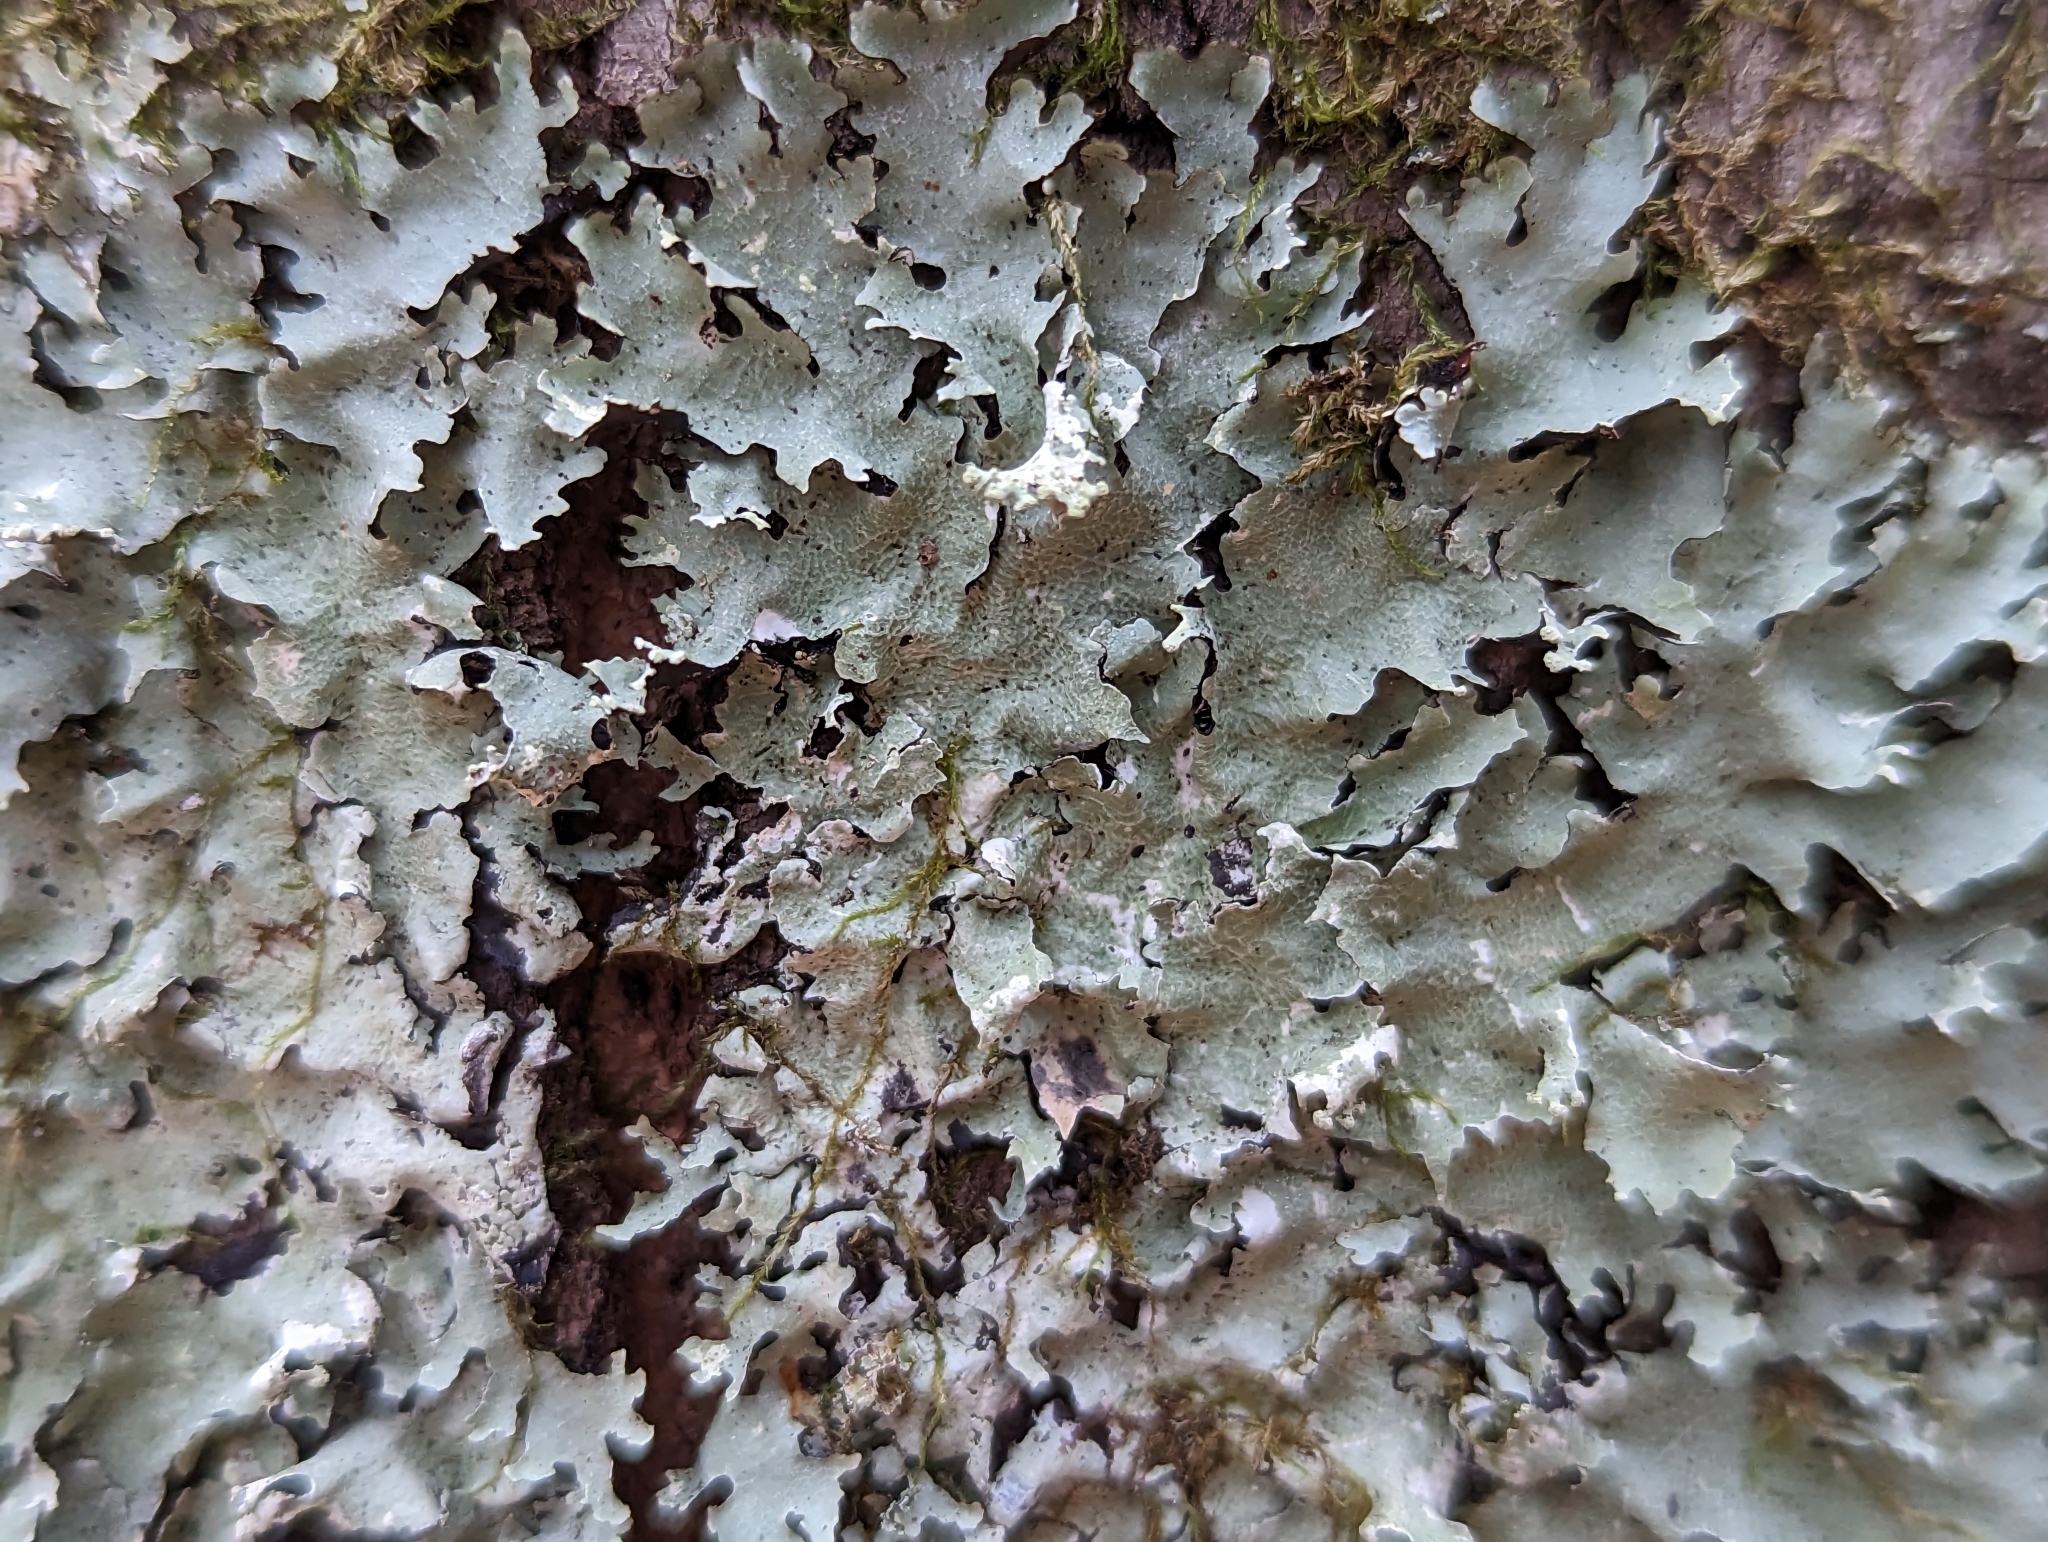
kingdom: Fungi
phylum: Ascomycota
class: Lecanoromycetes
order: Lecanorales
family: Parmeliaceae
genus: Parmotrema
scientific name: Parmotrema reticulatum
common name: Black sheet lichen
